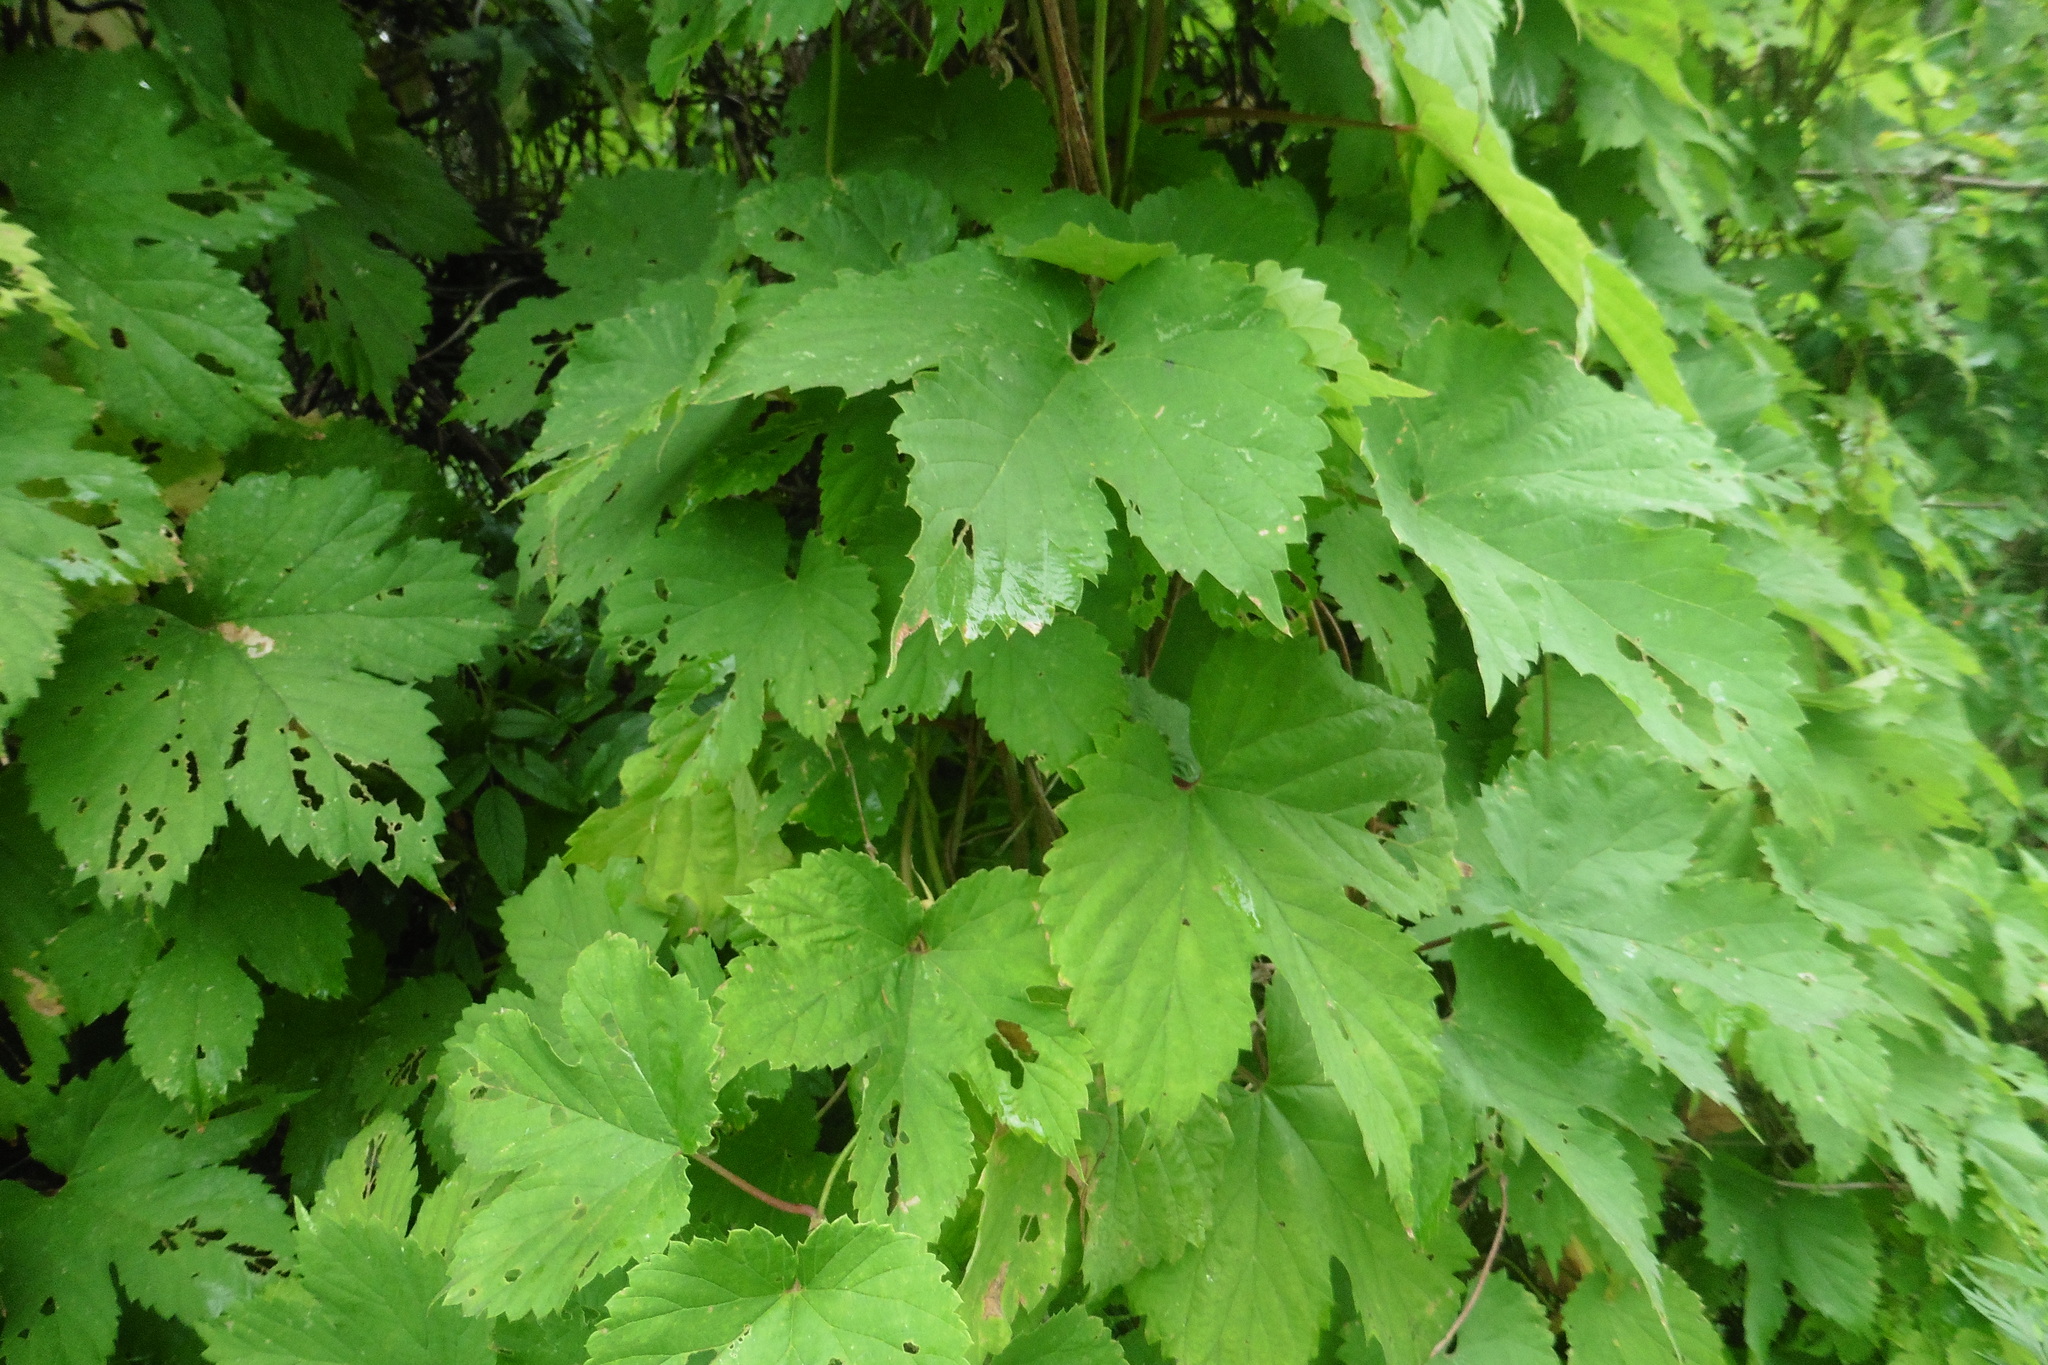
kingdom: Plantae
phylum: Tracheophyta
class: Magnoliopsida
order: Rosales
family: Cannabaceae
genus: Humulus
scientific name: Humulus lupulus
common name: Hop
